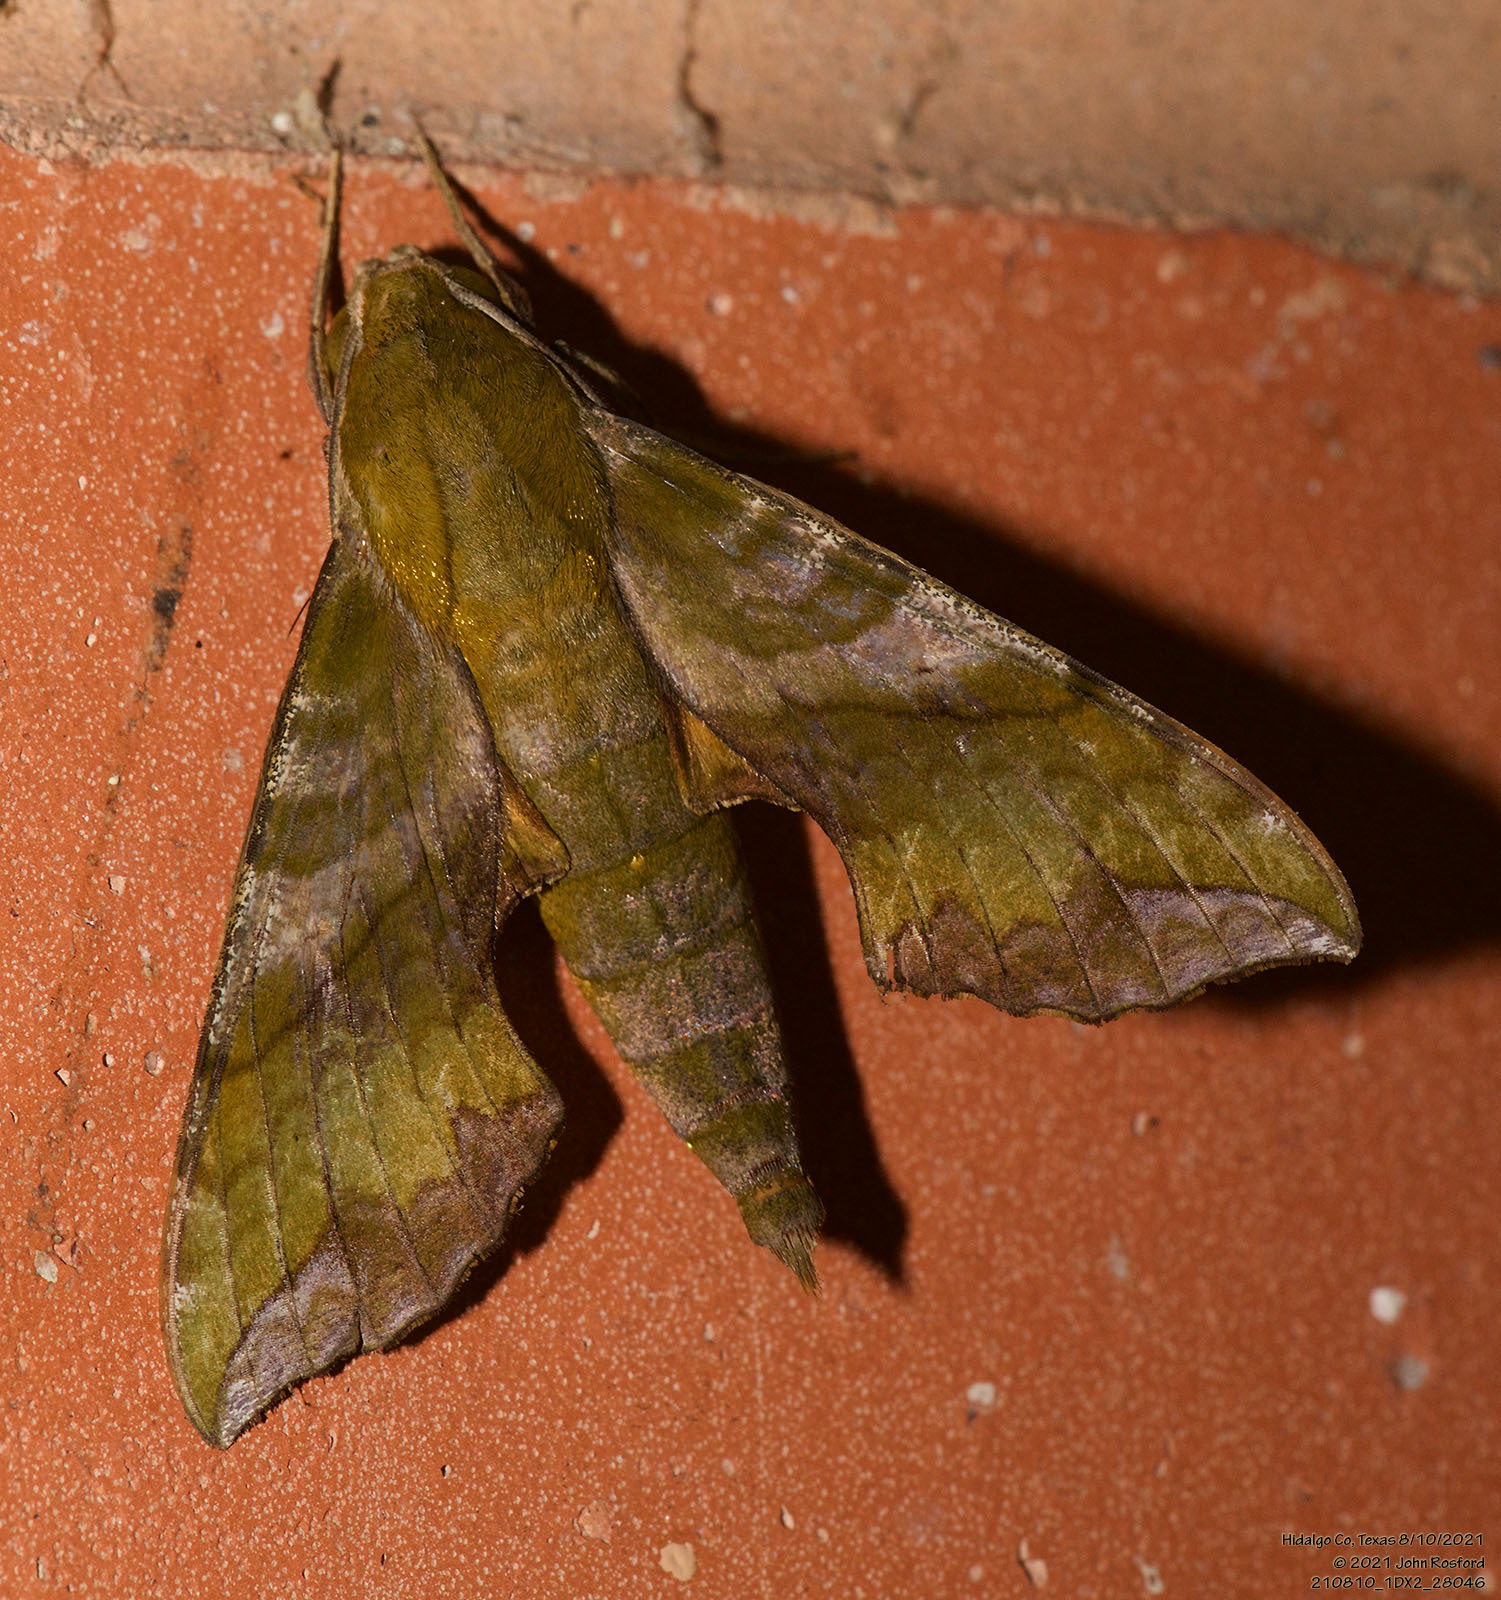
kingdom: Animalia
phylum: Arthropoda
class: Insecta
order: Lepidoptera
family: Sphingidae
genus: Xylophanes
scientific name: Xylophanes pluto
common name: Pluto sphinx
